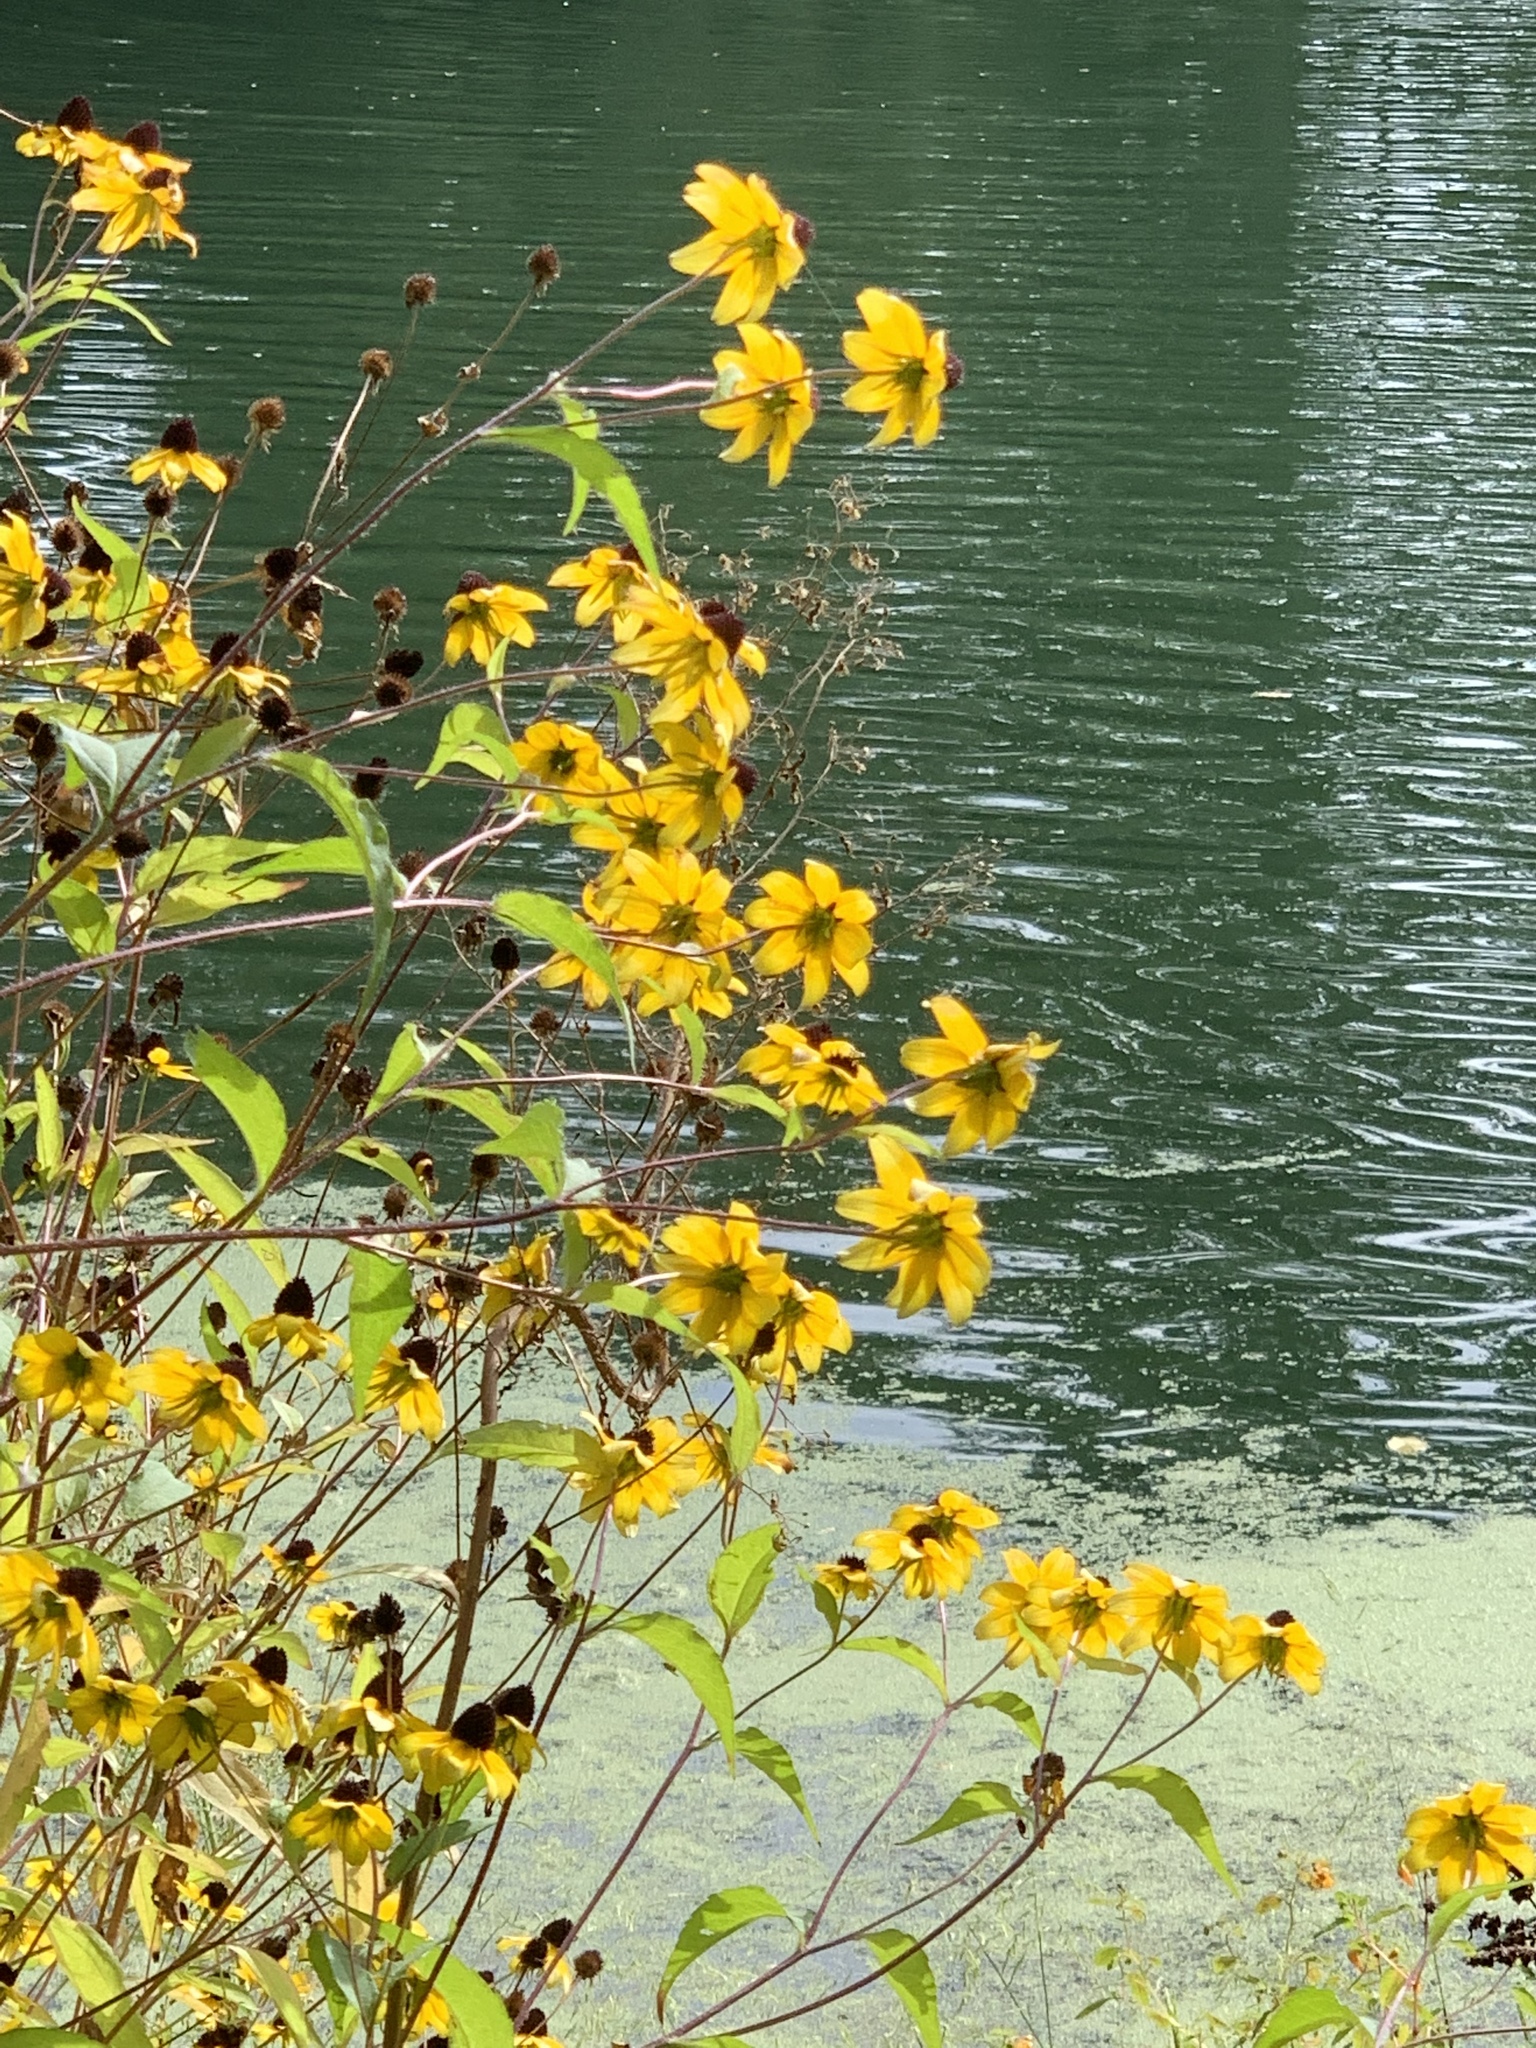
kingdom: Plantae
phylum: Tracheophyta
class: Magnoliopsida
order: Asterales
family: Asteraceae
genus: Rudbeckia
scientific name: Rudbeckia triloba
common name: Thin-leaved coneflower
